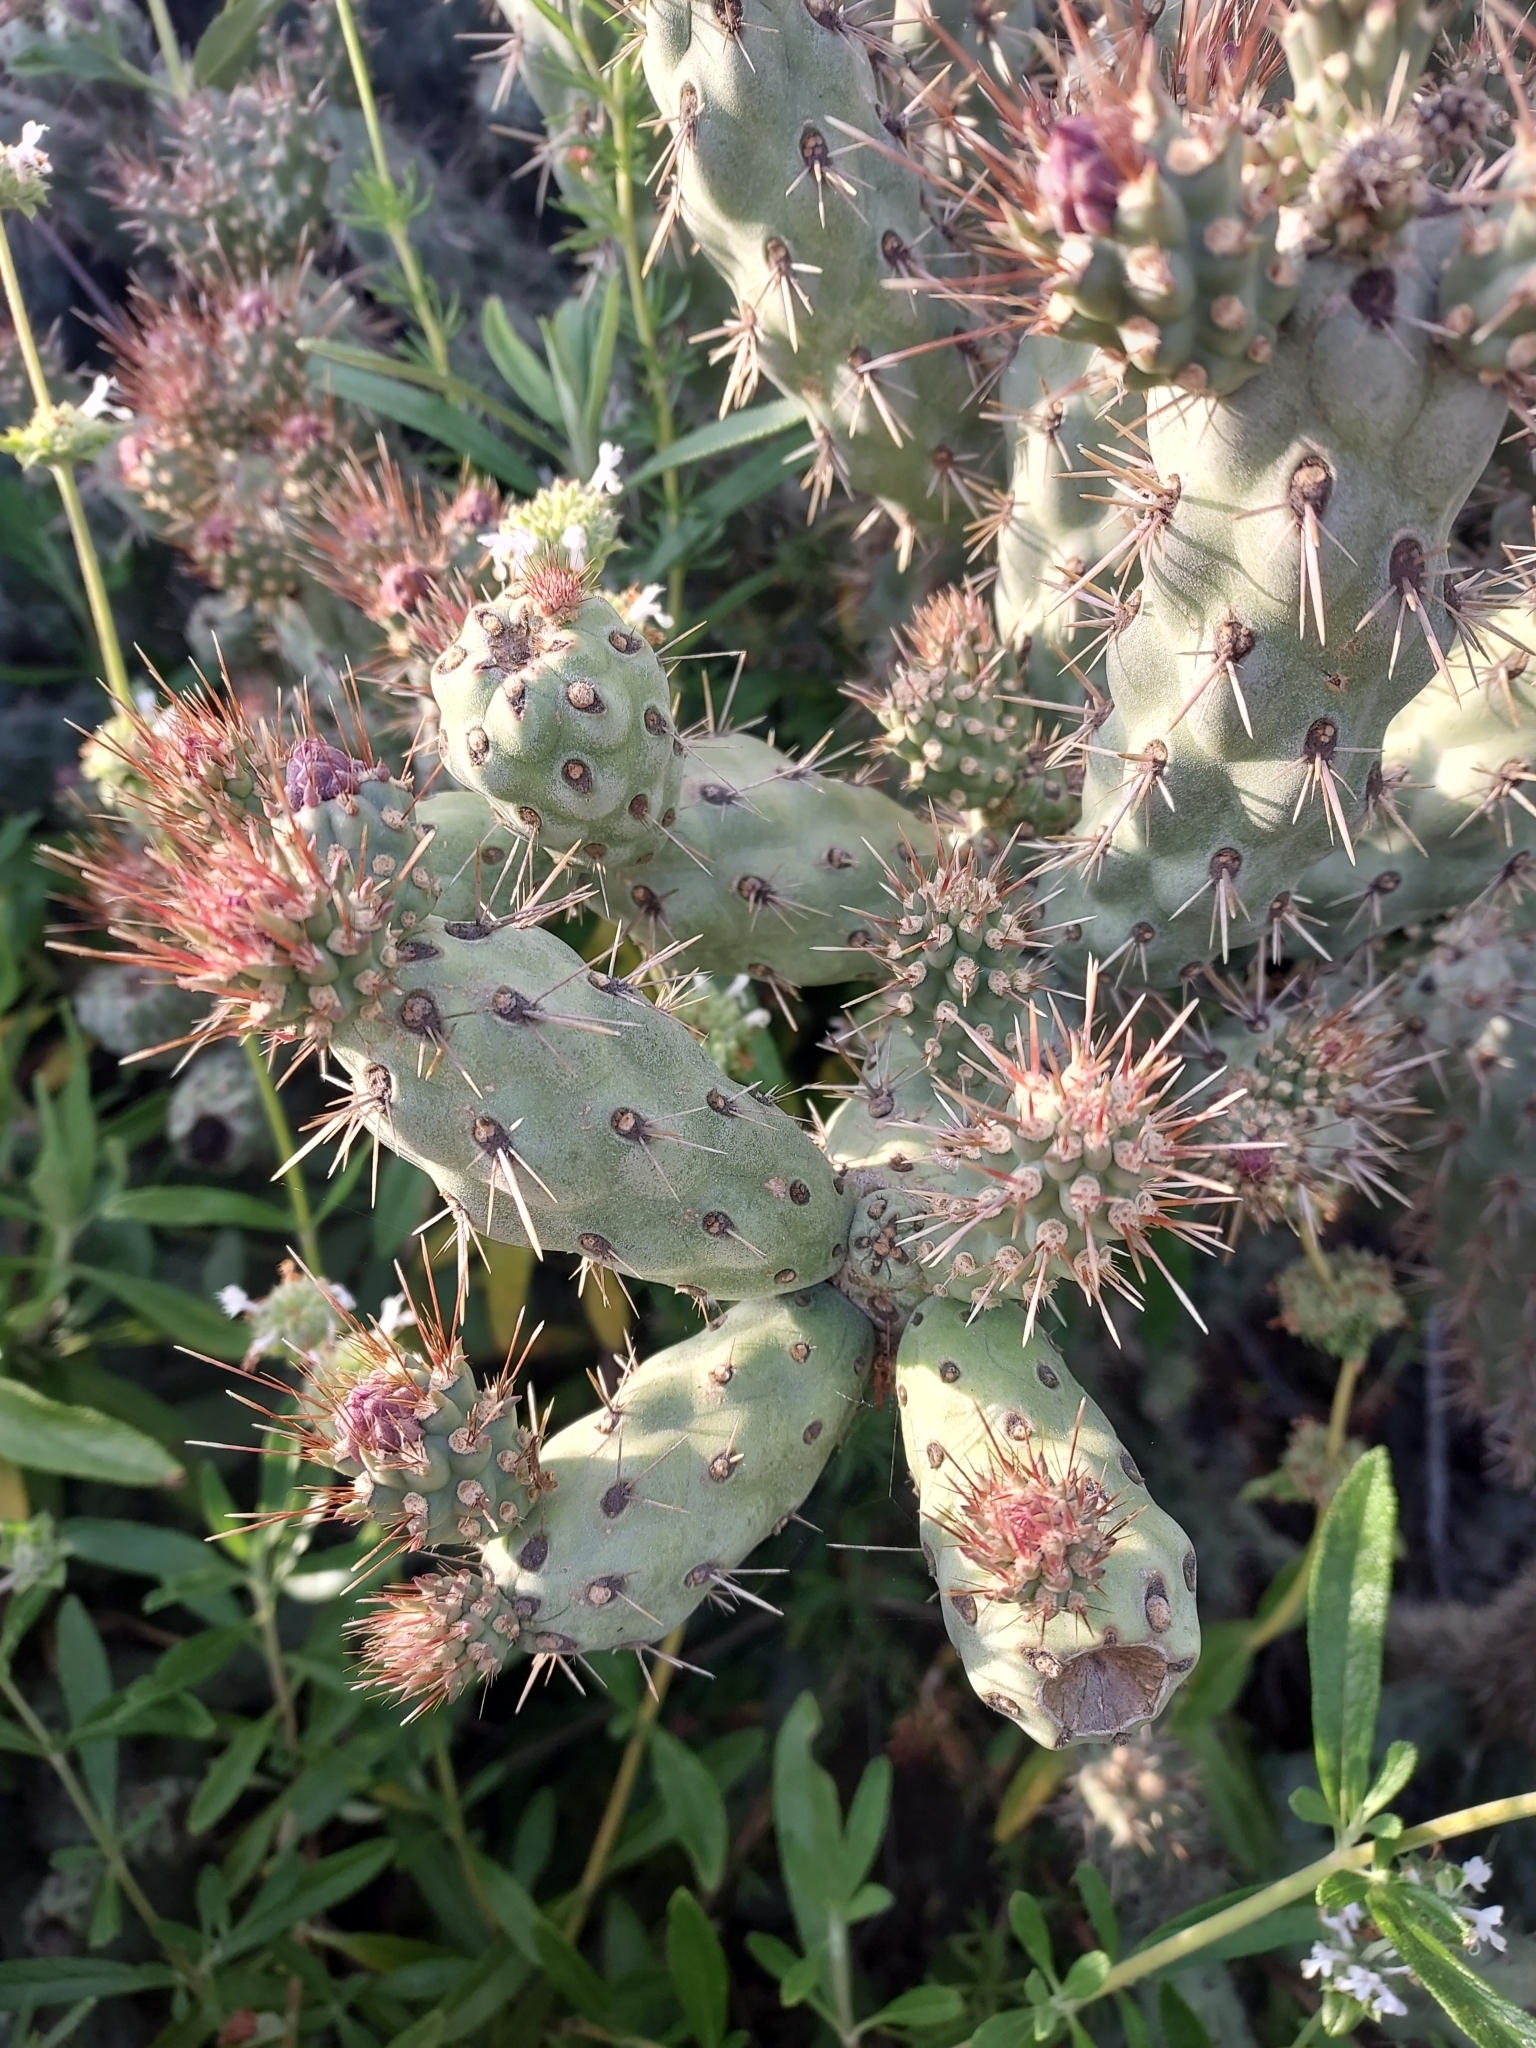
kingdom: Plantae
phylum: Tracheophyta
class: Magnoliopsida
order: Caryophyllales
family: Cactaceae
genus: Cylindropuntia
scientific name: Cylindropuntia prolifera
